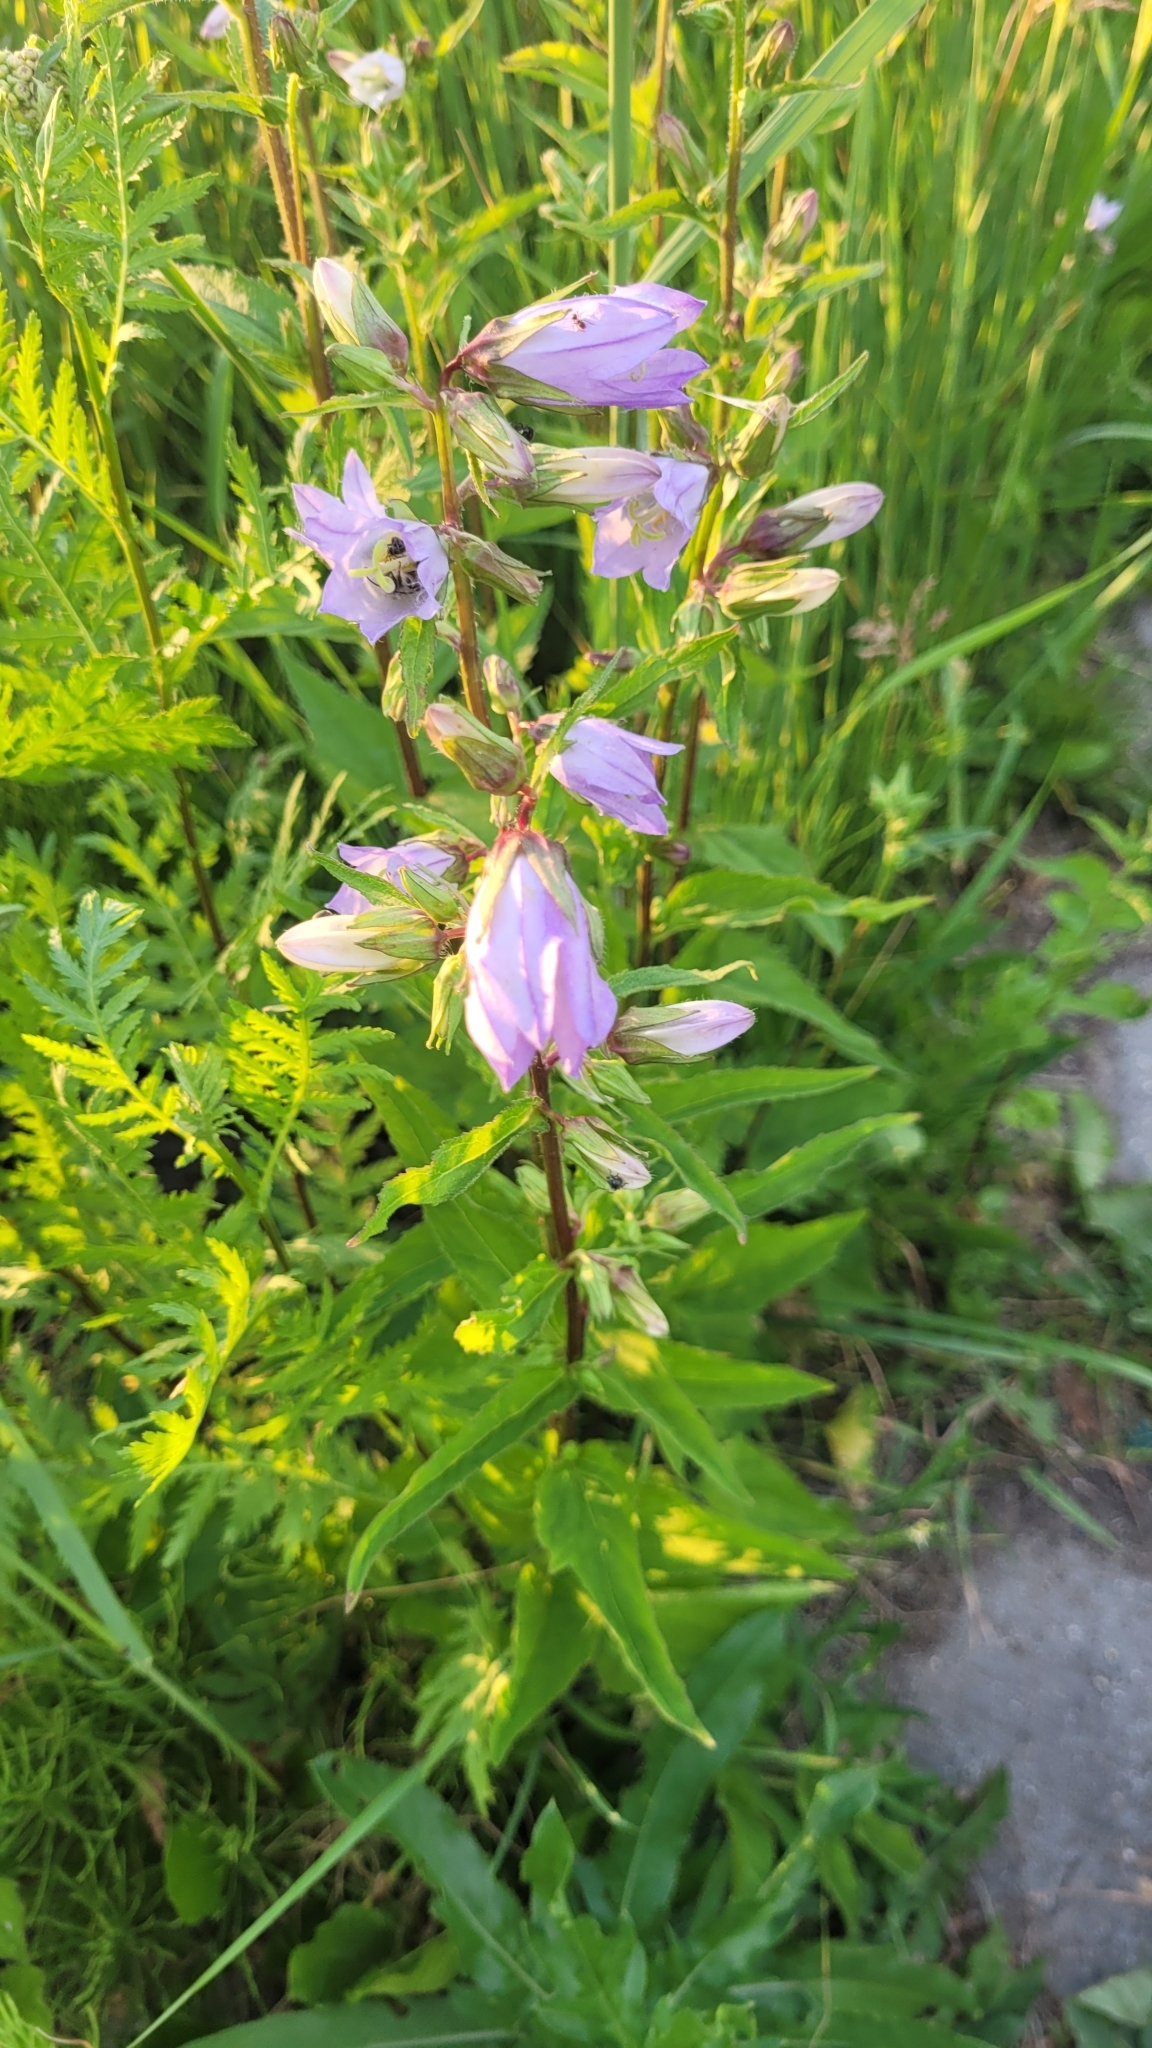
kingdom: Plantae
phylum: Tracheophyta
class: Magnoliopsida
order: Asterales
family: Campanulaceae
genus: Campanula
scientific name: Campanula trachelium
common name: Nettle-leaved bellflower
